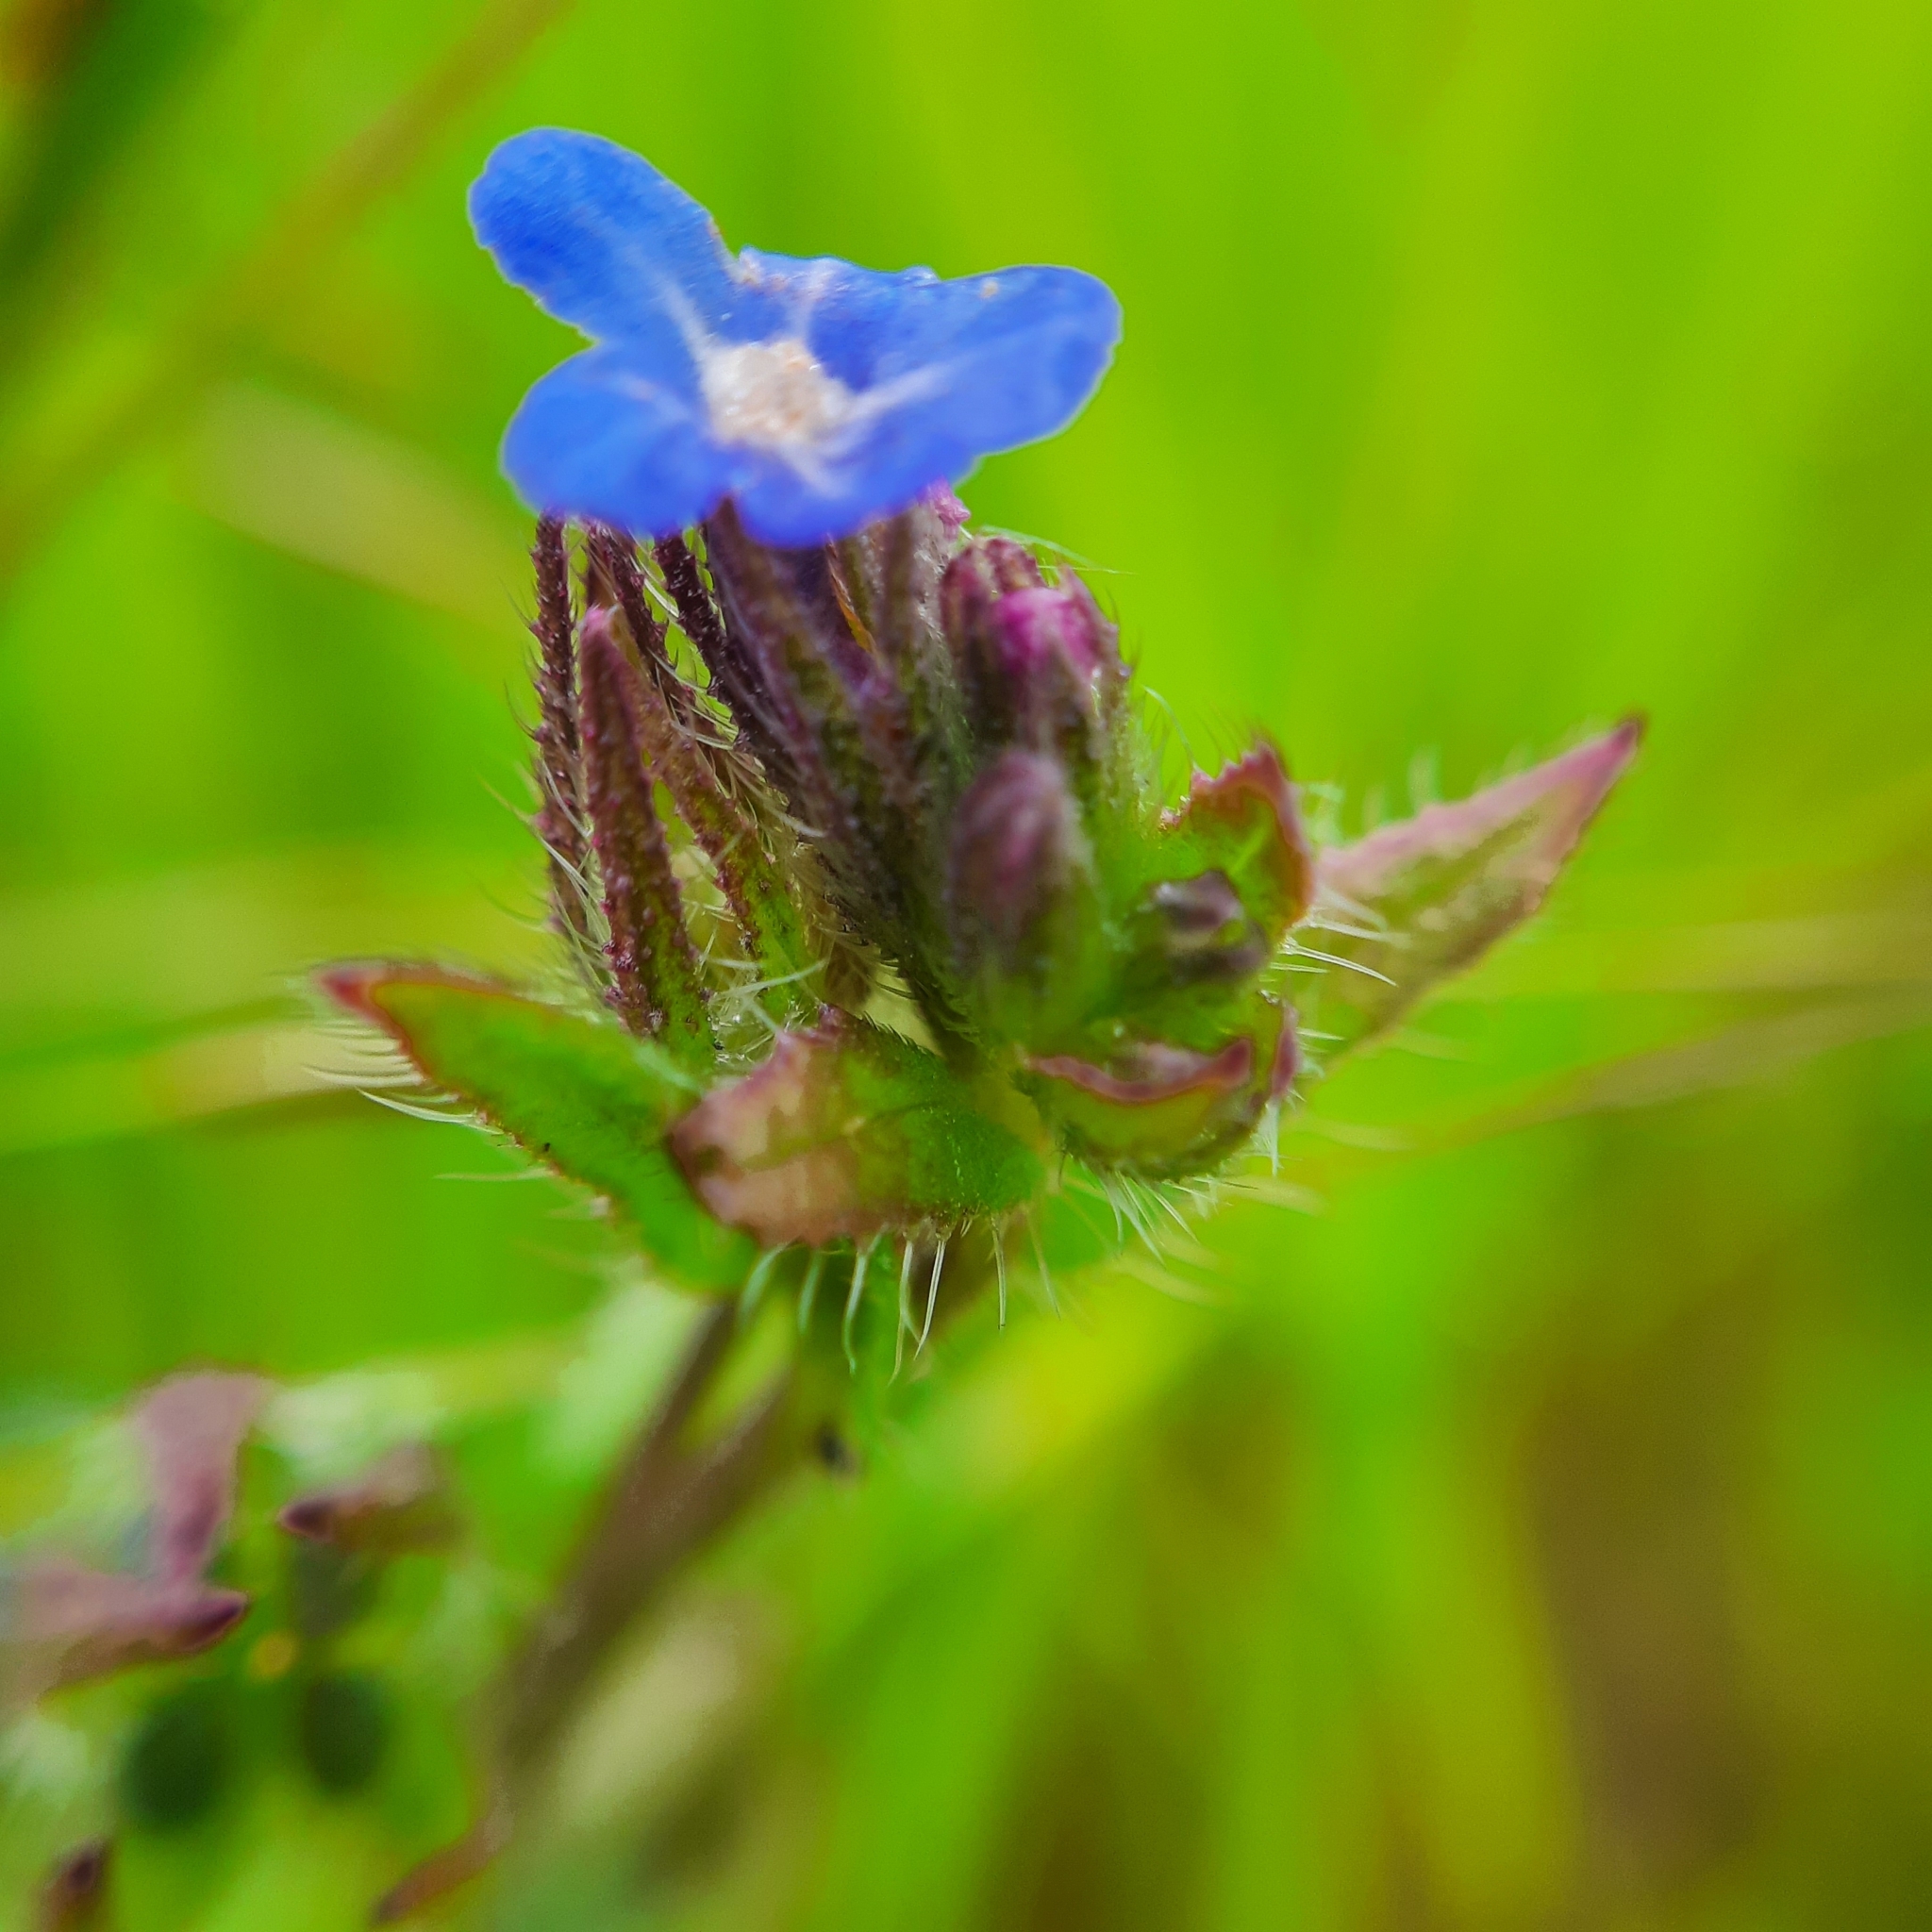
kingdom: Plantae
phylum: Tracheophyta
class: Magnoliopsida
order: Boraginales
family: Boraginaceae
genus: Lycopsis
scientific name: Lycopsis arvensis
